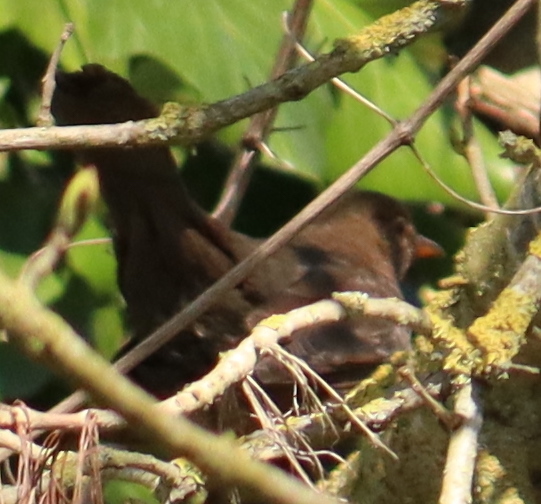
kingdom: Animalia
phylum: Chordata
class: Aves
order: Passeriformes
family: Turdidae
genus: Turdus
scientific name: Turdus merula
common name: Common blackbird
